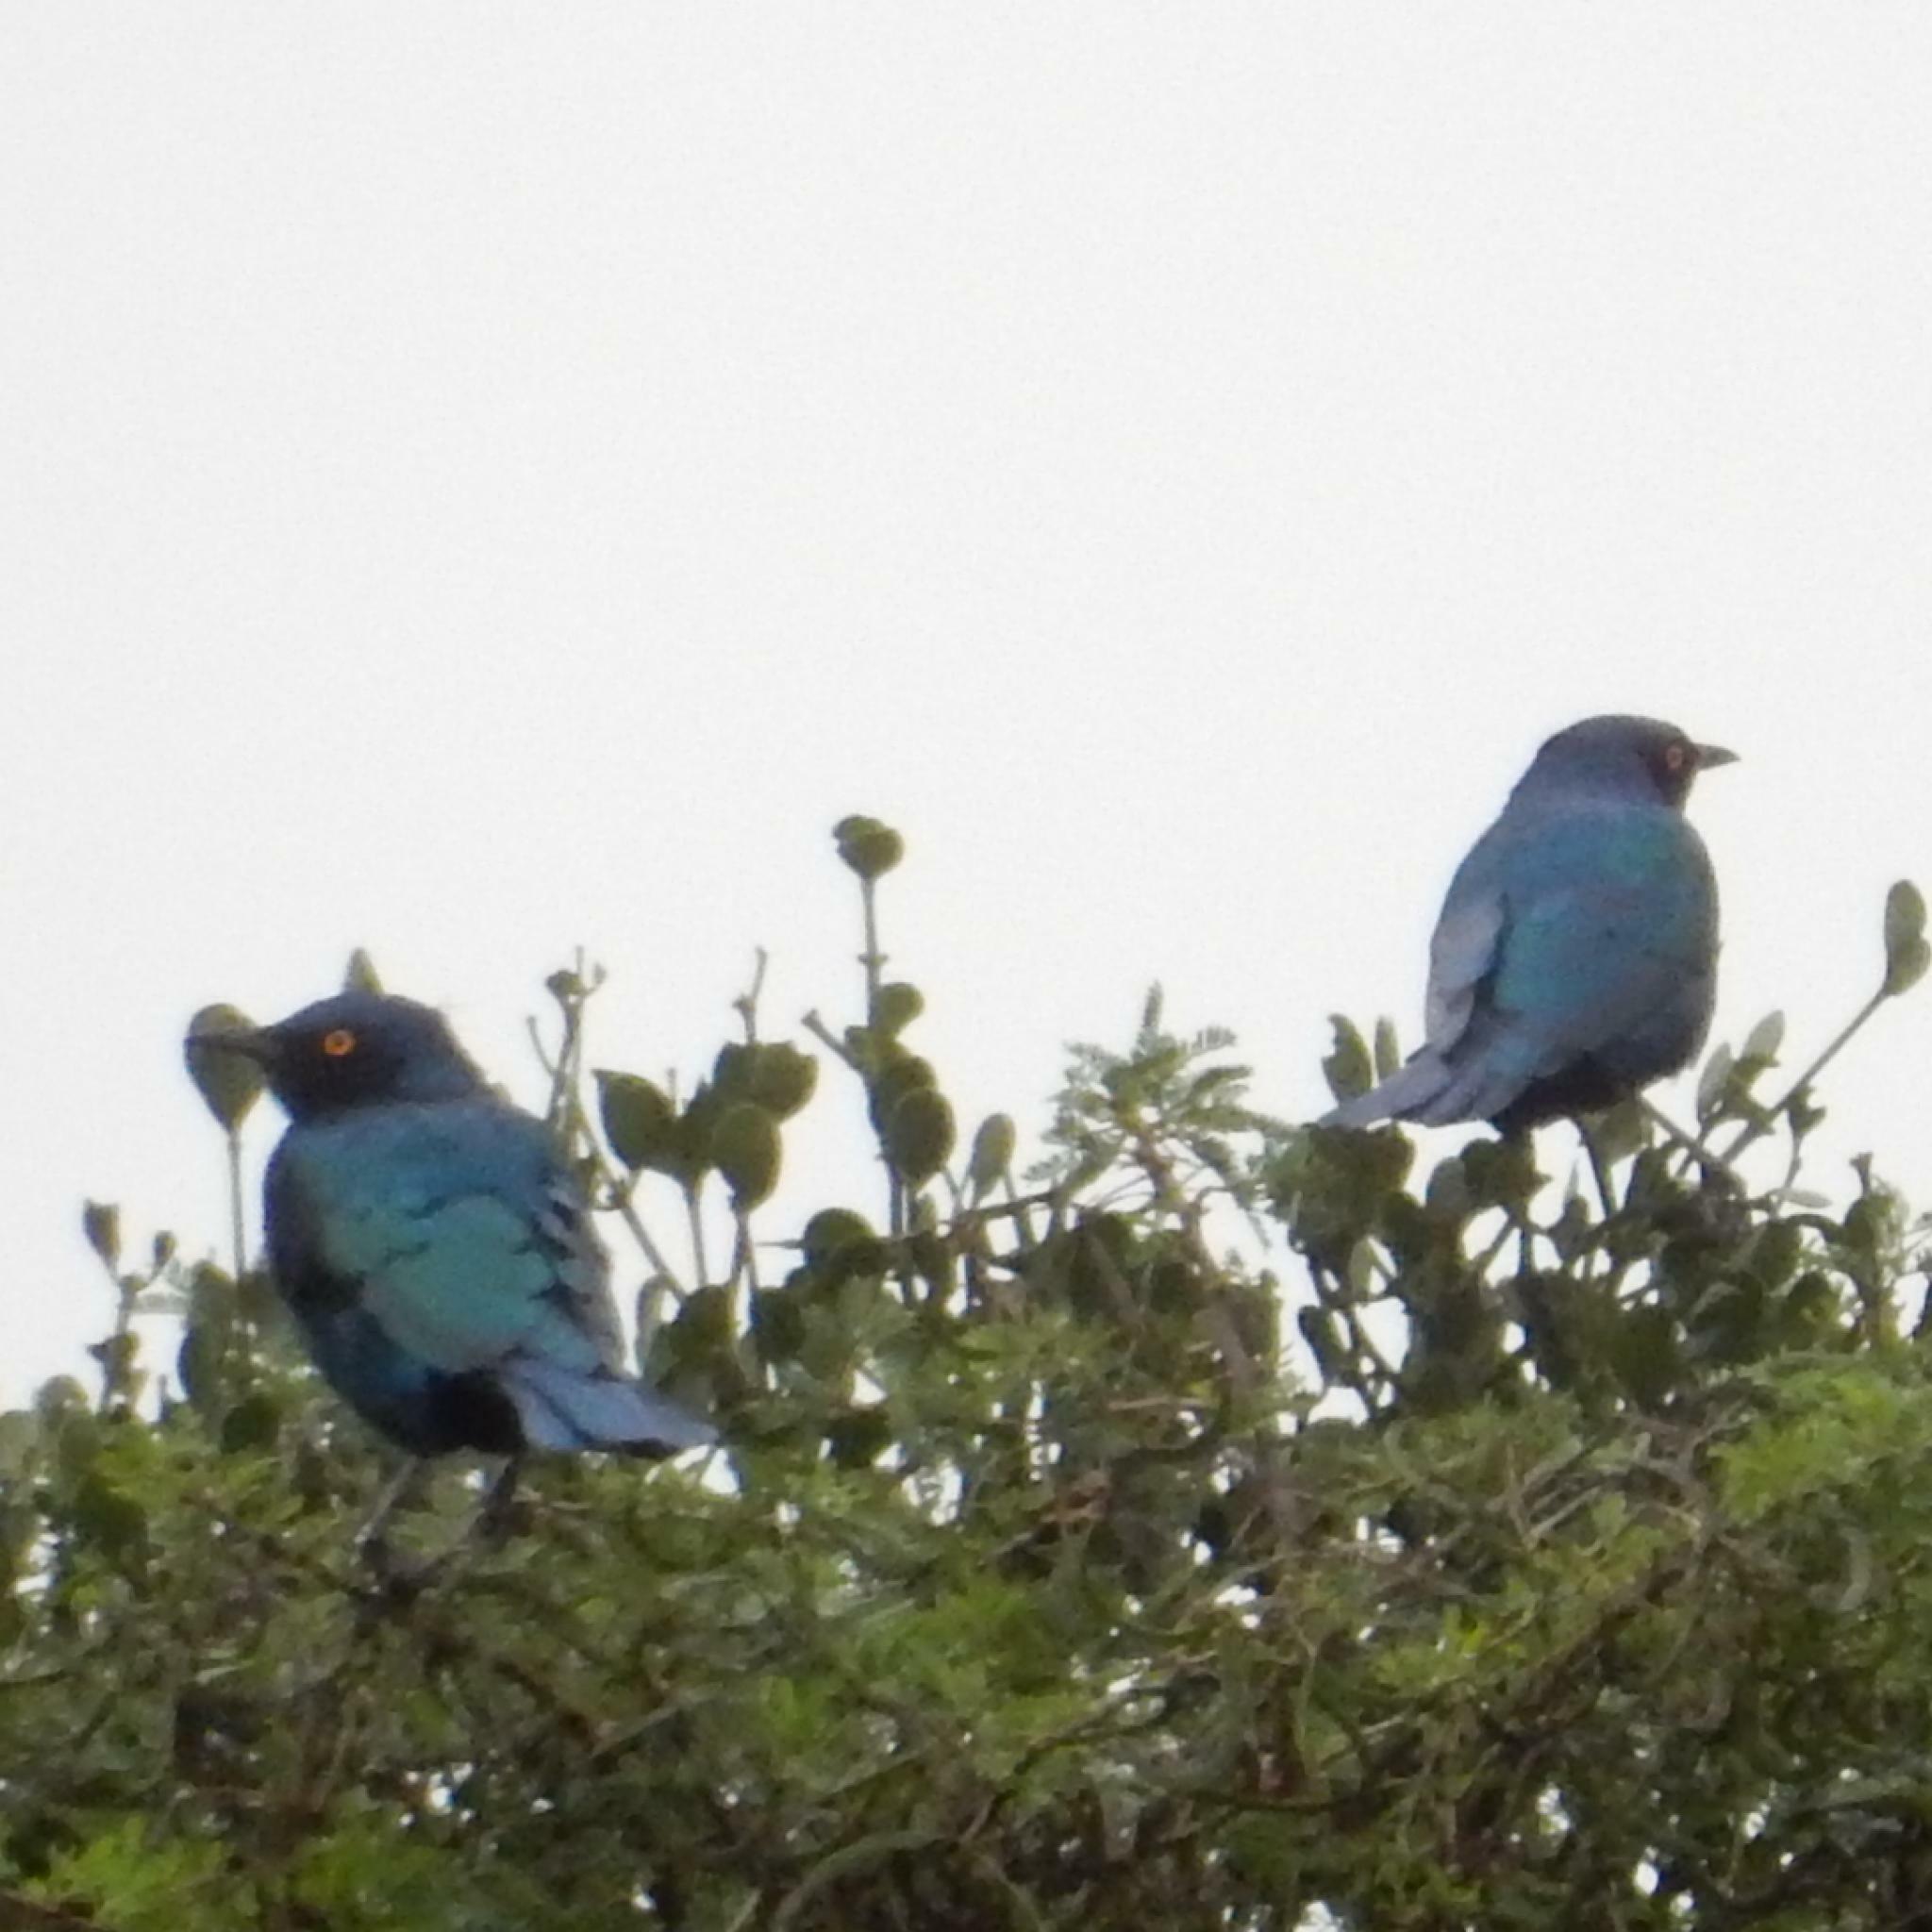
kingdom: Animalia
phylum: Chordata
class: Aves
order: Passeriformes
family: Sturnidae
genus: Lamprotornis
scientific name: Lamprotornis nitens
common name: Cape starling
